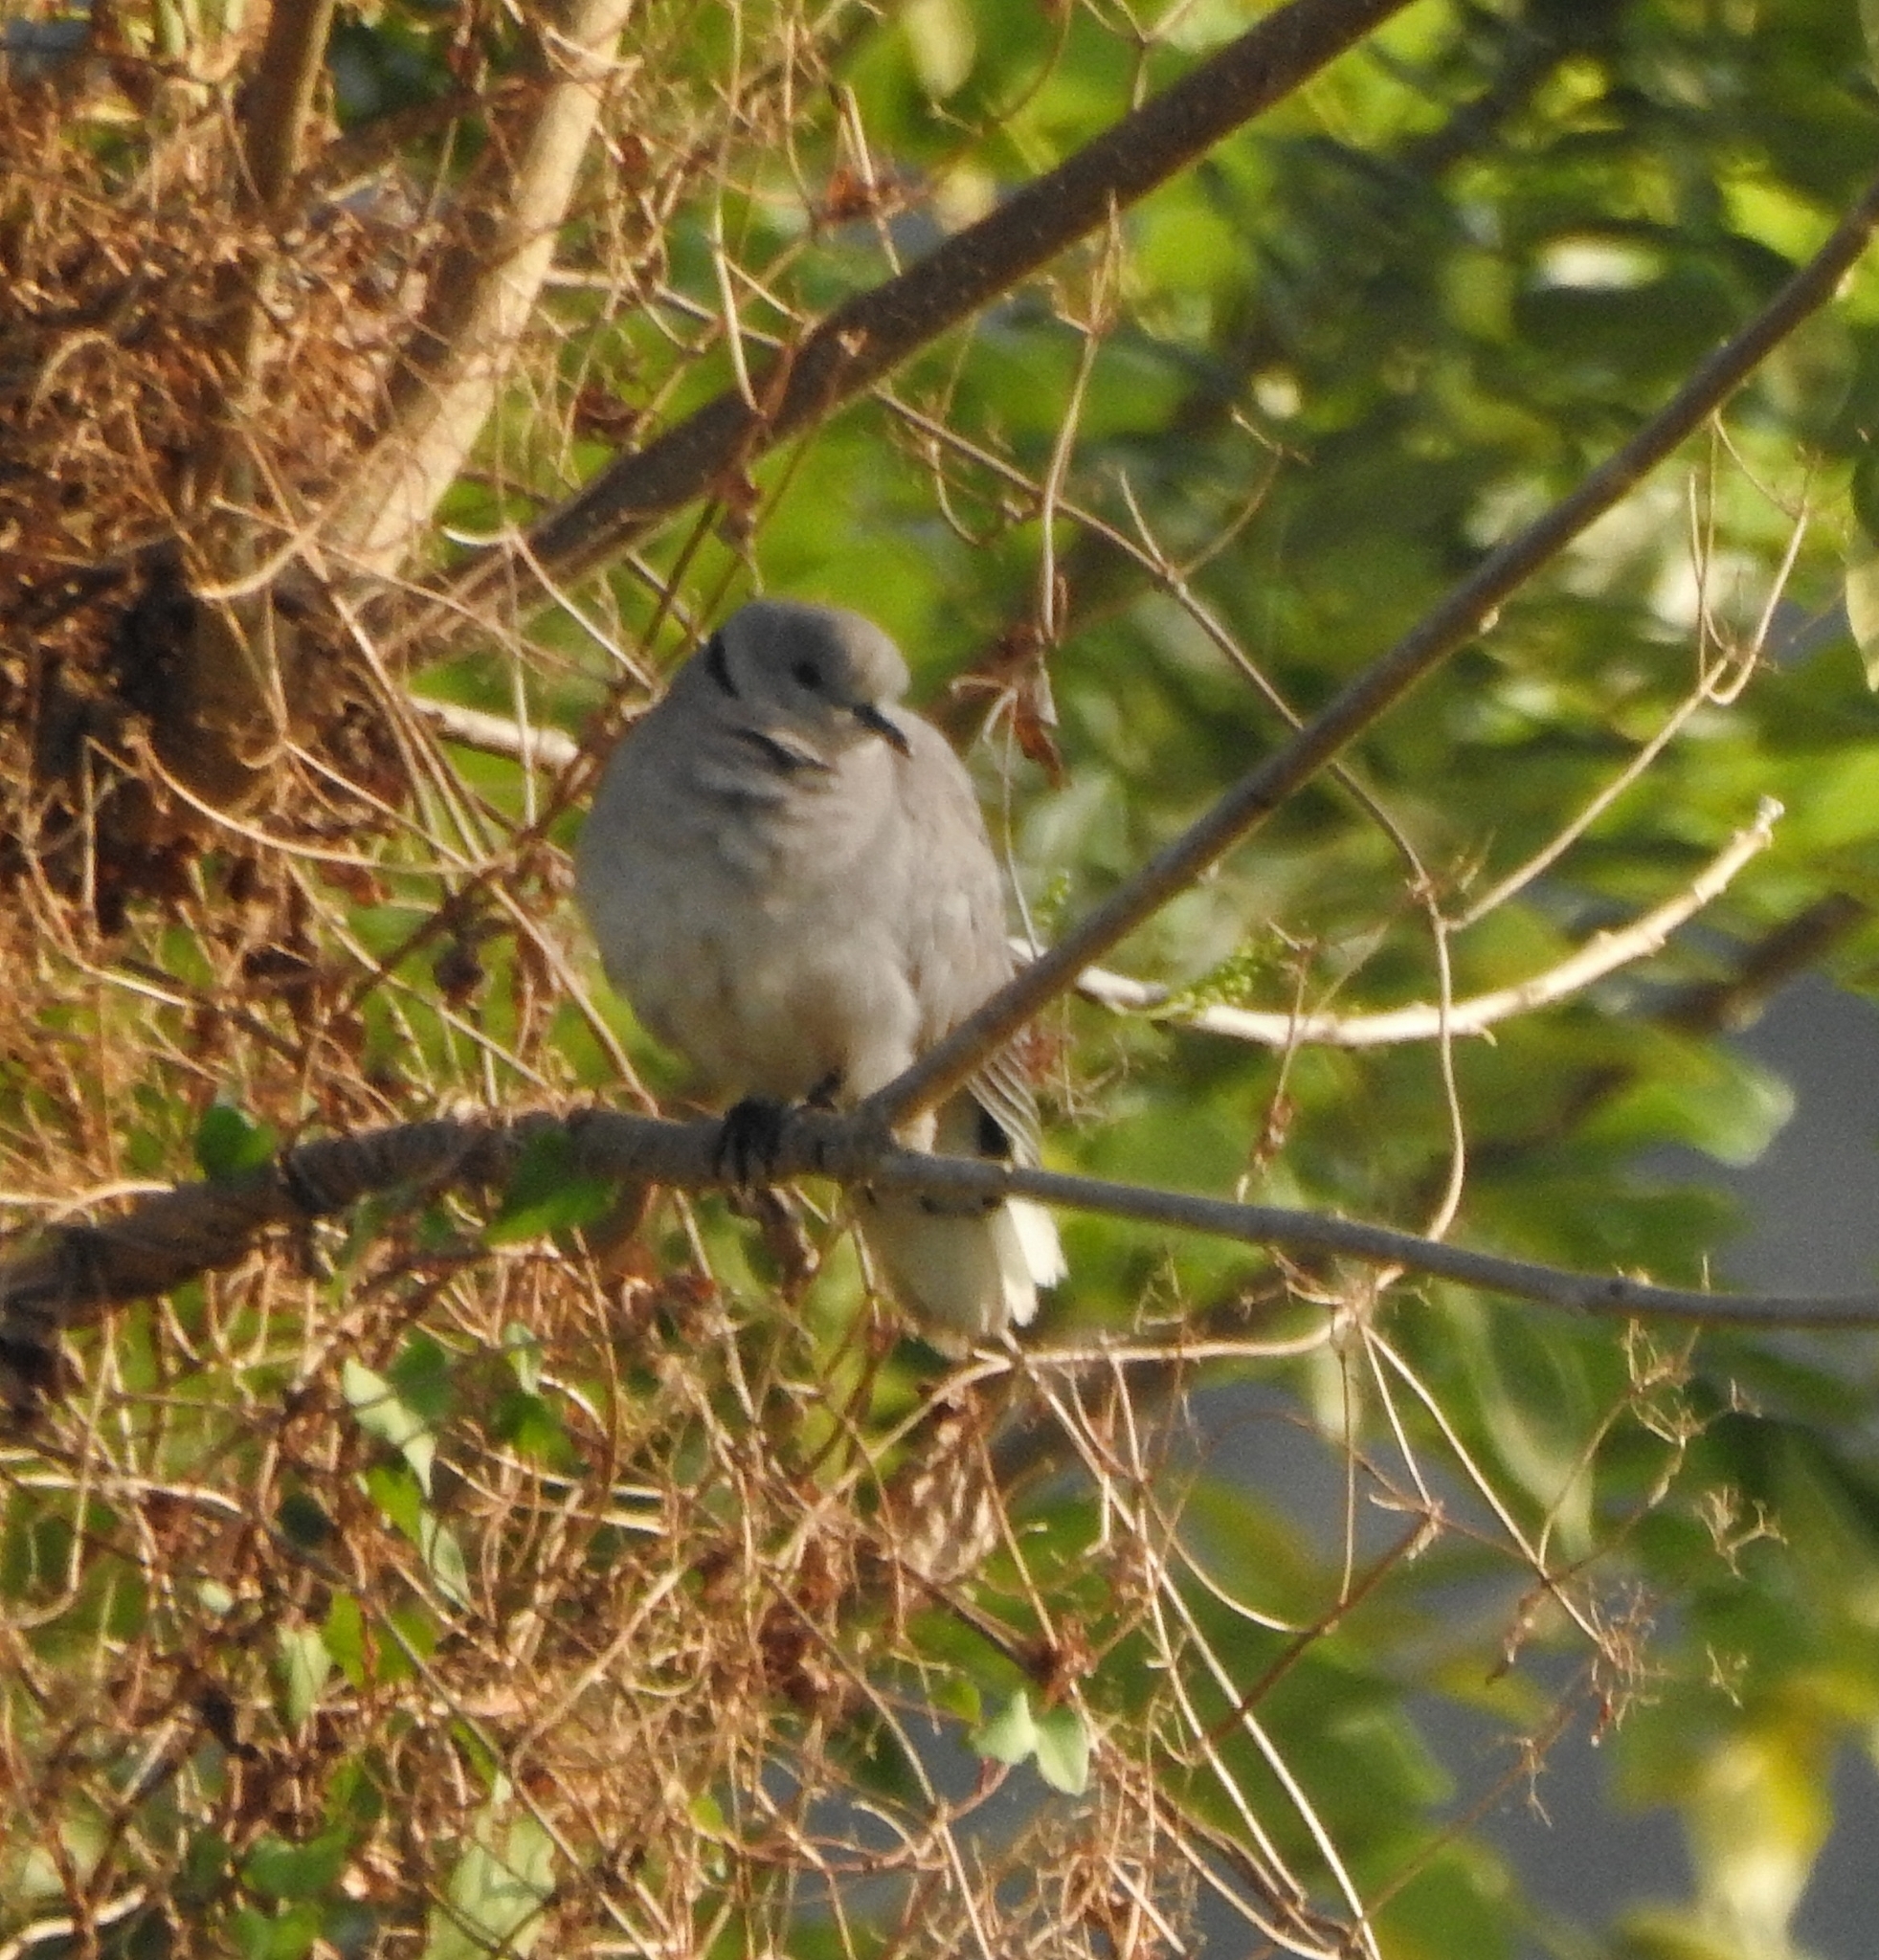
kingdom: Animalia
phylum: Chordata
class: Aves
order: Columbiformes
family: Columbidae
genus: Streptopelia
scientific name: Streptopelia decaocto
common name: Eurasian collared dove
